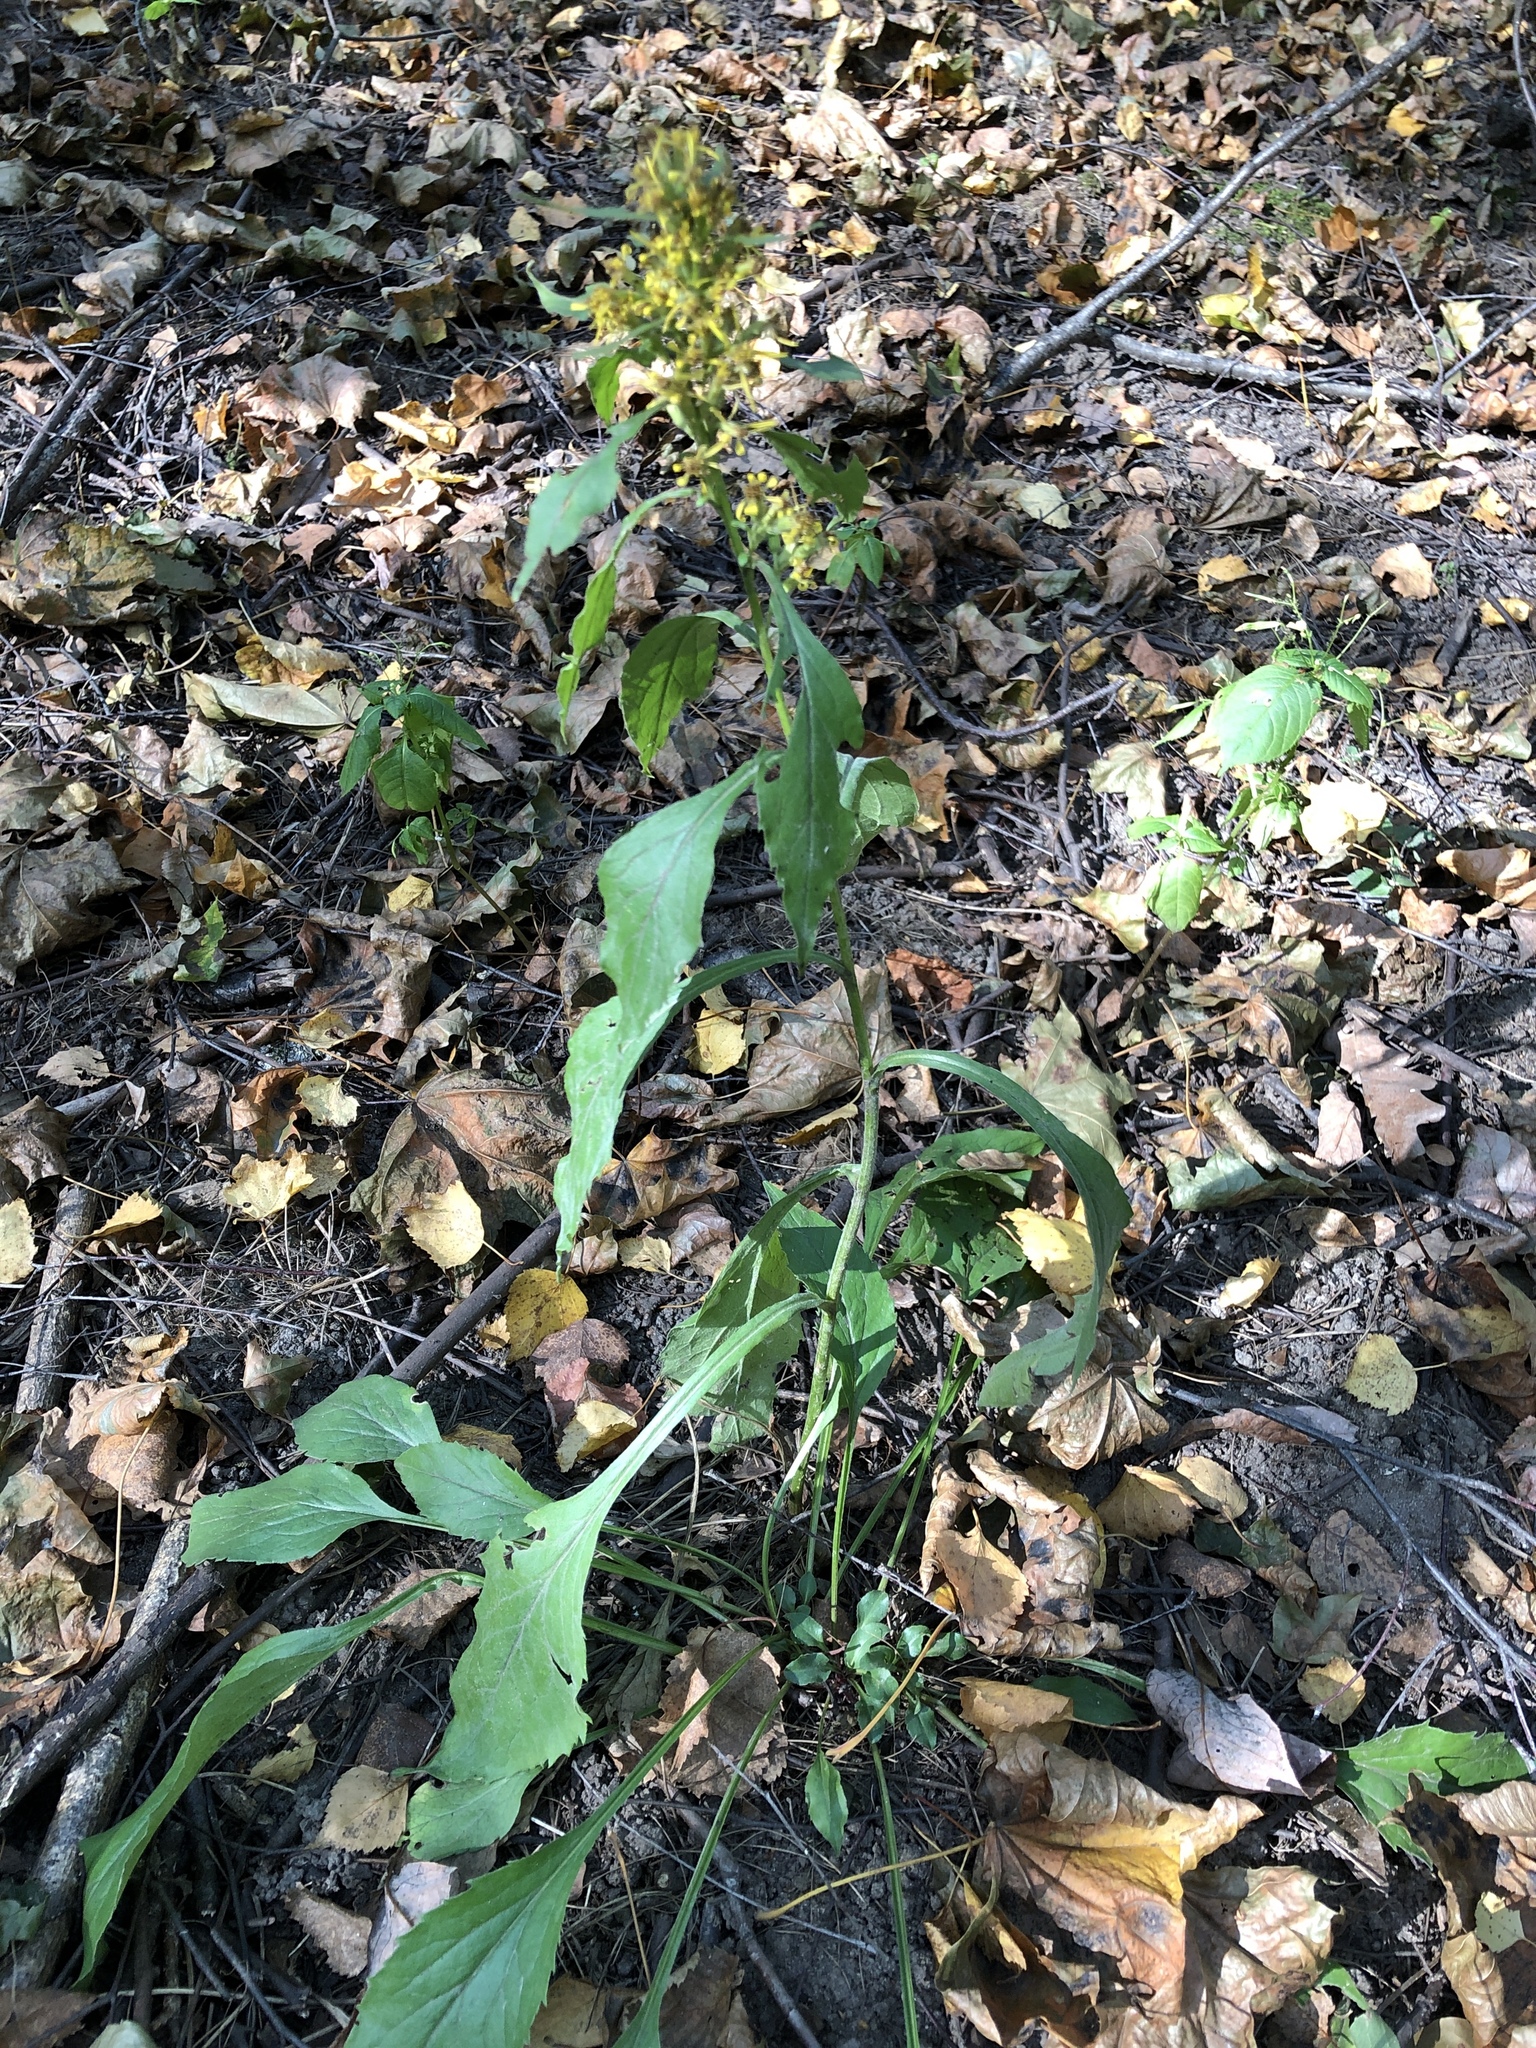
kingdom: Plantae
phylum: Tracheophyta
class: Magnoliopsida
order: Asterales
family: Asteraceae
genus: Solidago
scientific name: Solidago virgaurea
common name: Goldenrod
